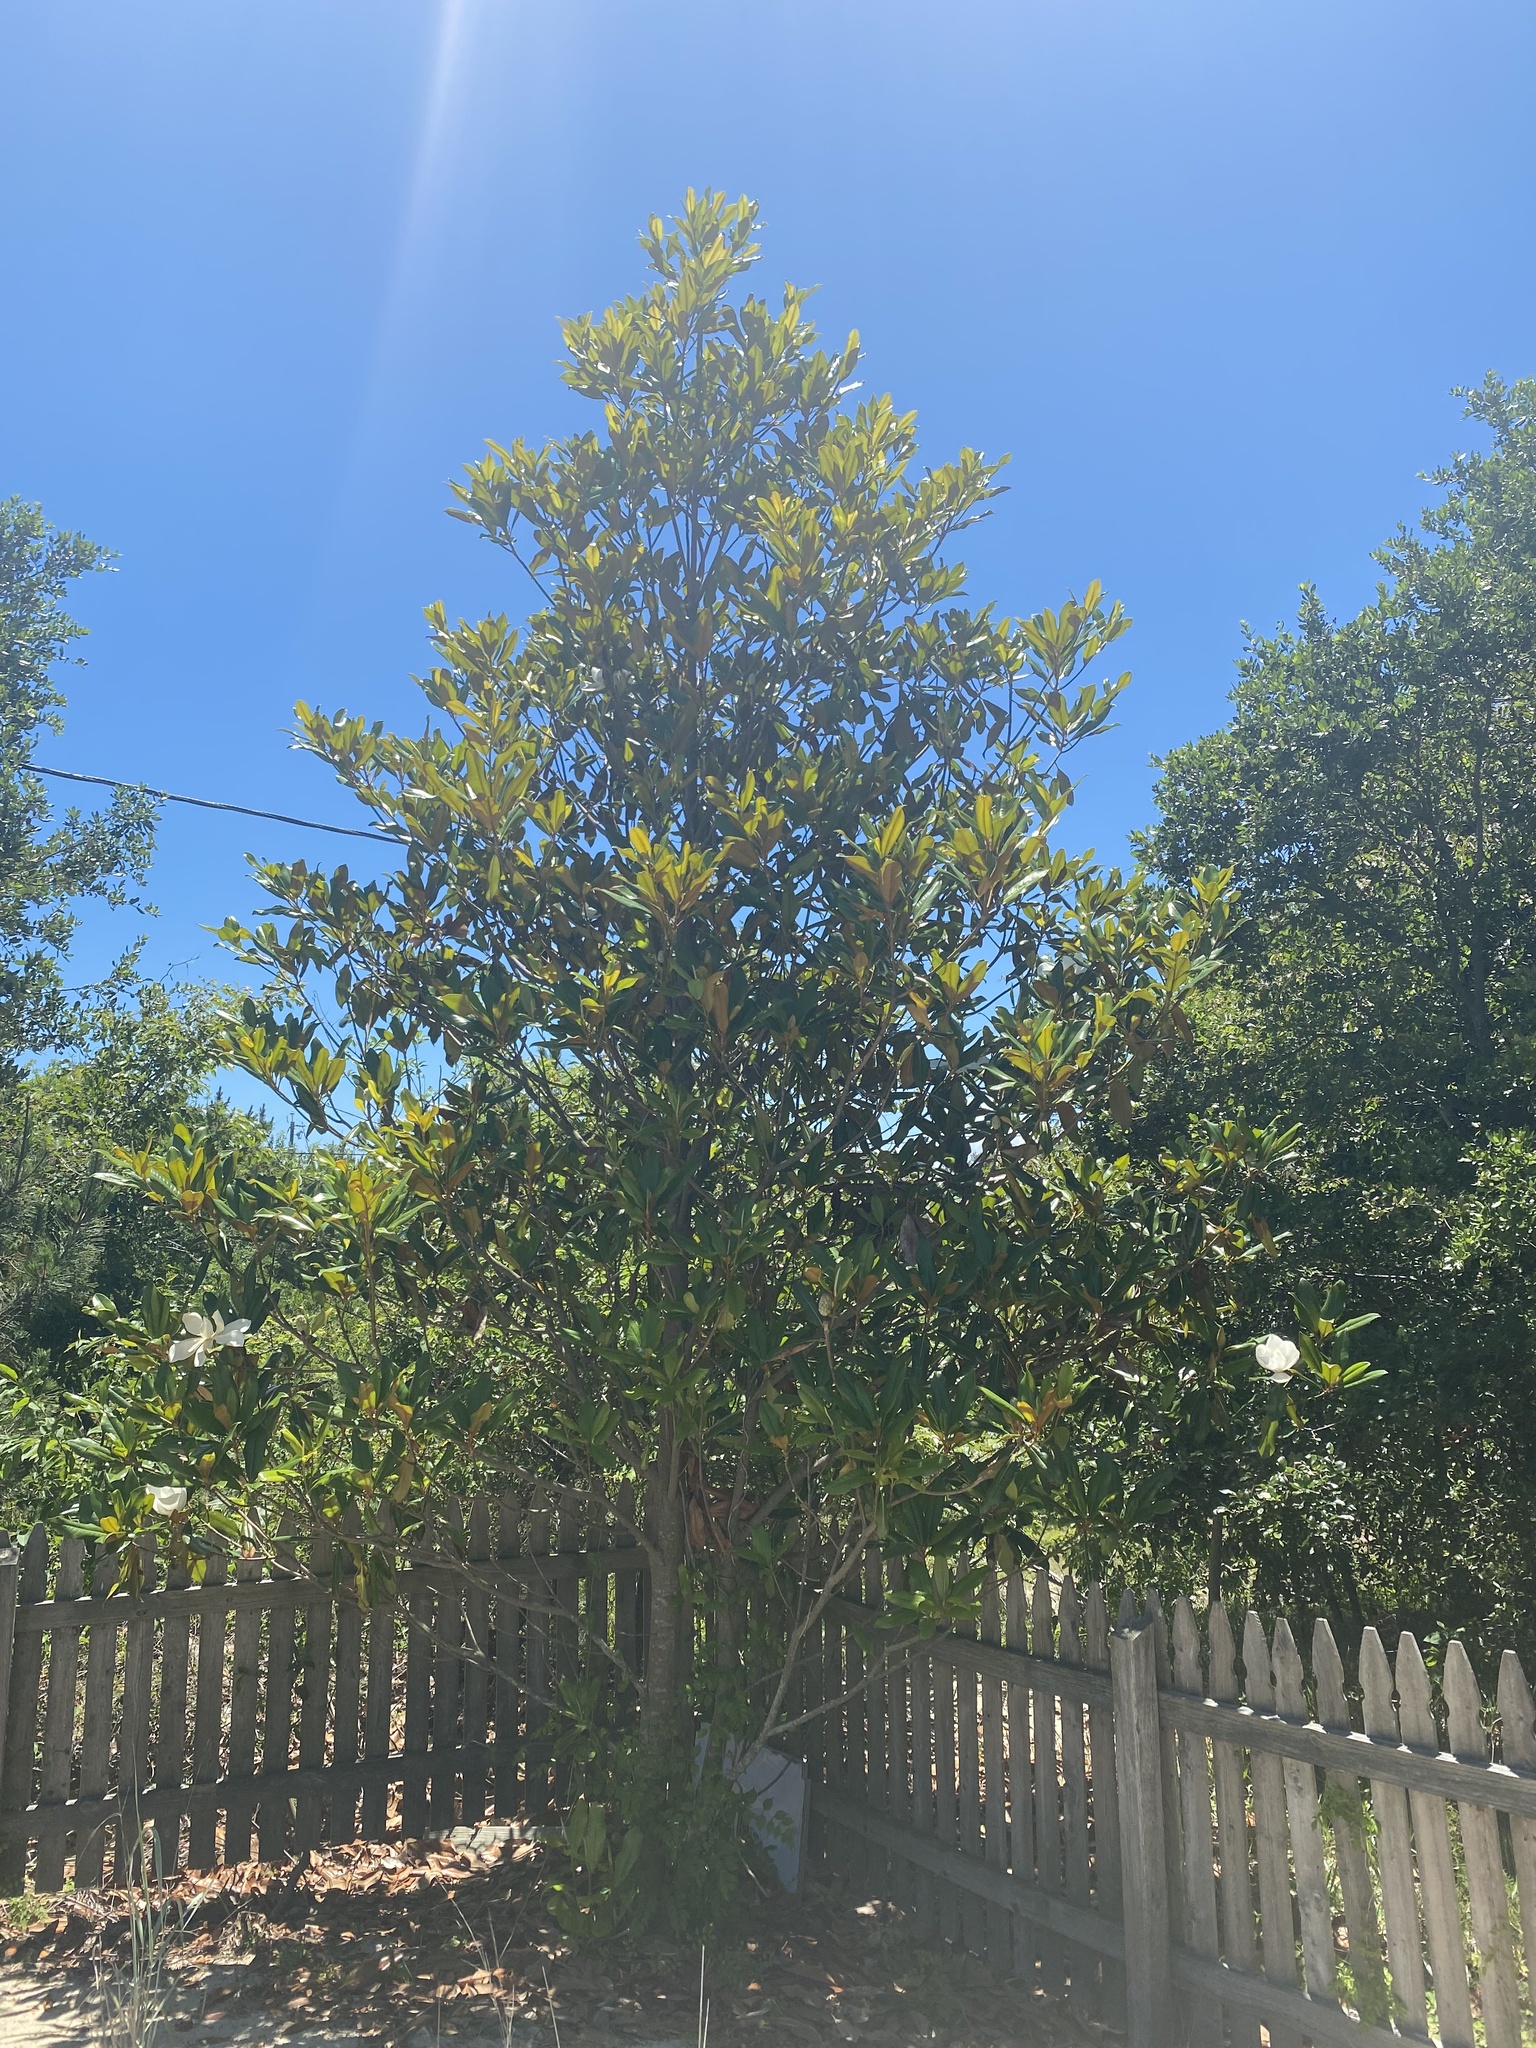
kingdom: Plantae
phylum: Tracheophyta
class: Magnoliopsida
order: Magnoliales
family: Magnoliaceae
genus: Magnolia
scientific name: Magnolia grandiflora
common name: Southern magnolia
